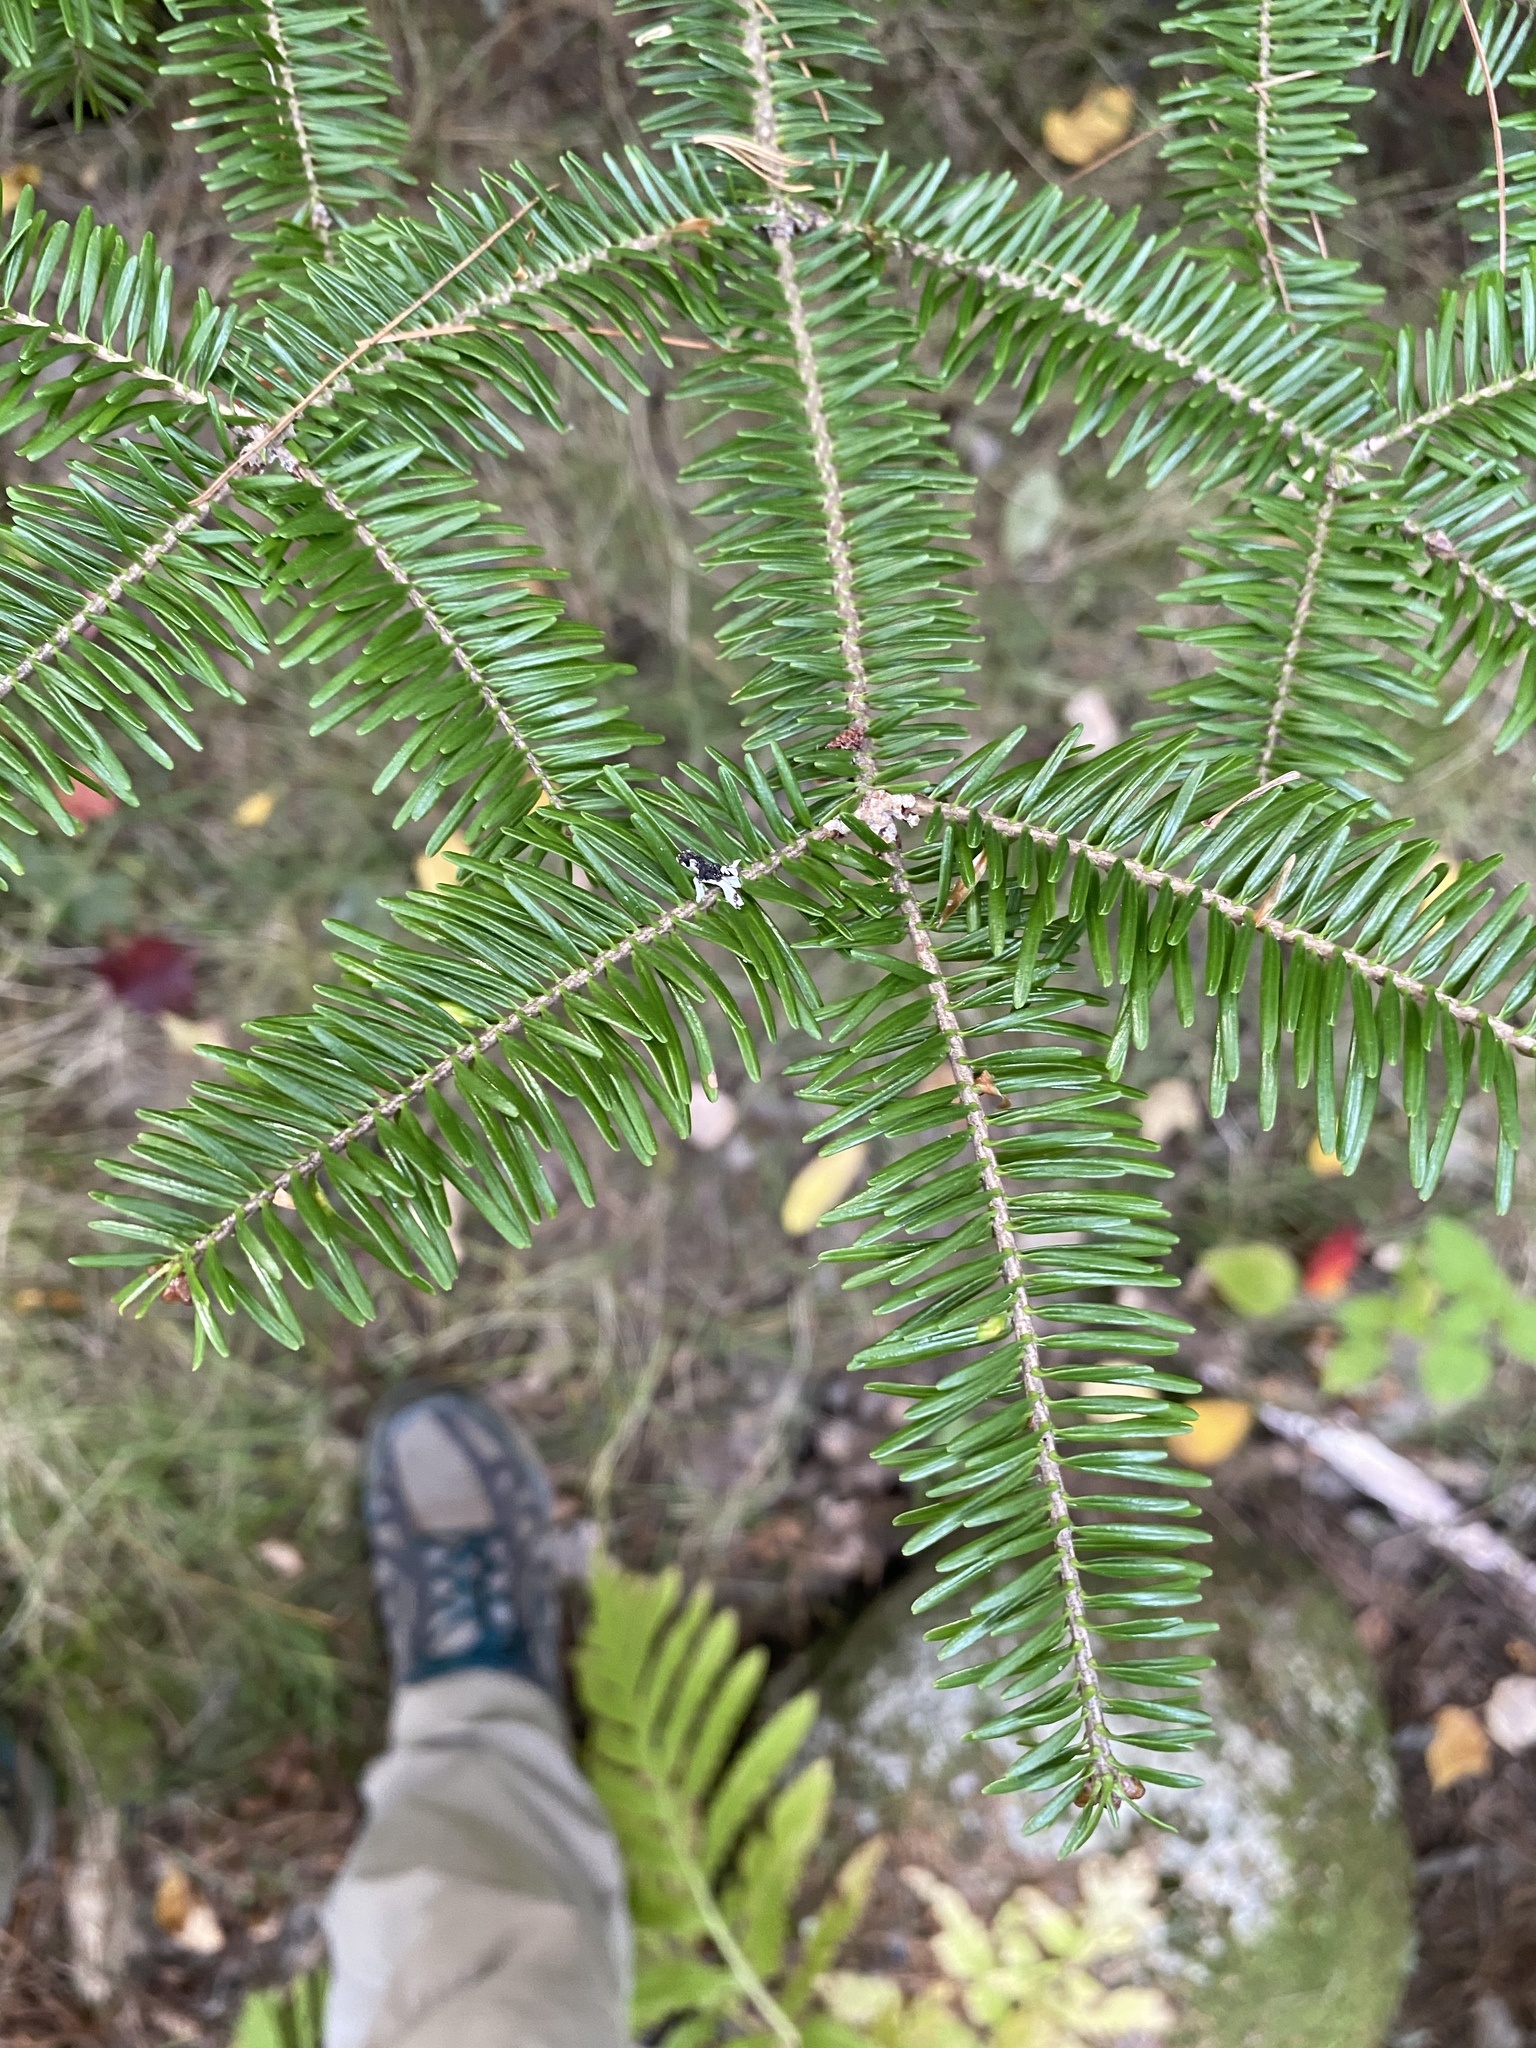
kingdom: Plantae
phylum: Tracheophyta
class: Pinopsida
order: Pinales
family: Pinaceae
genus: Abies
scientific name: Abies balsamea
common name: Balsam fir
